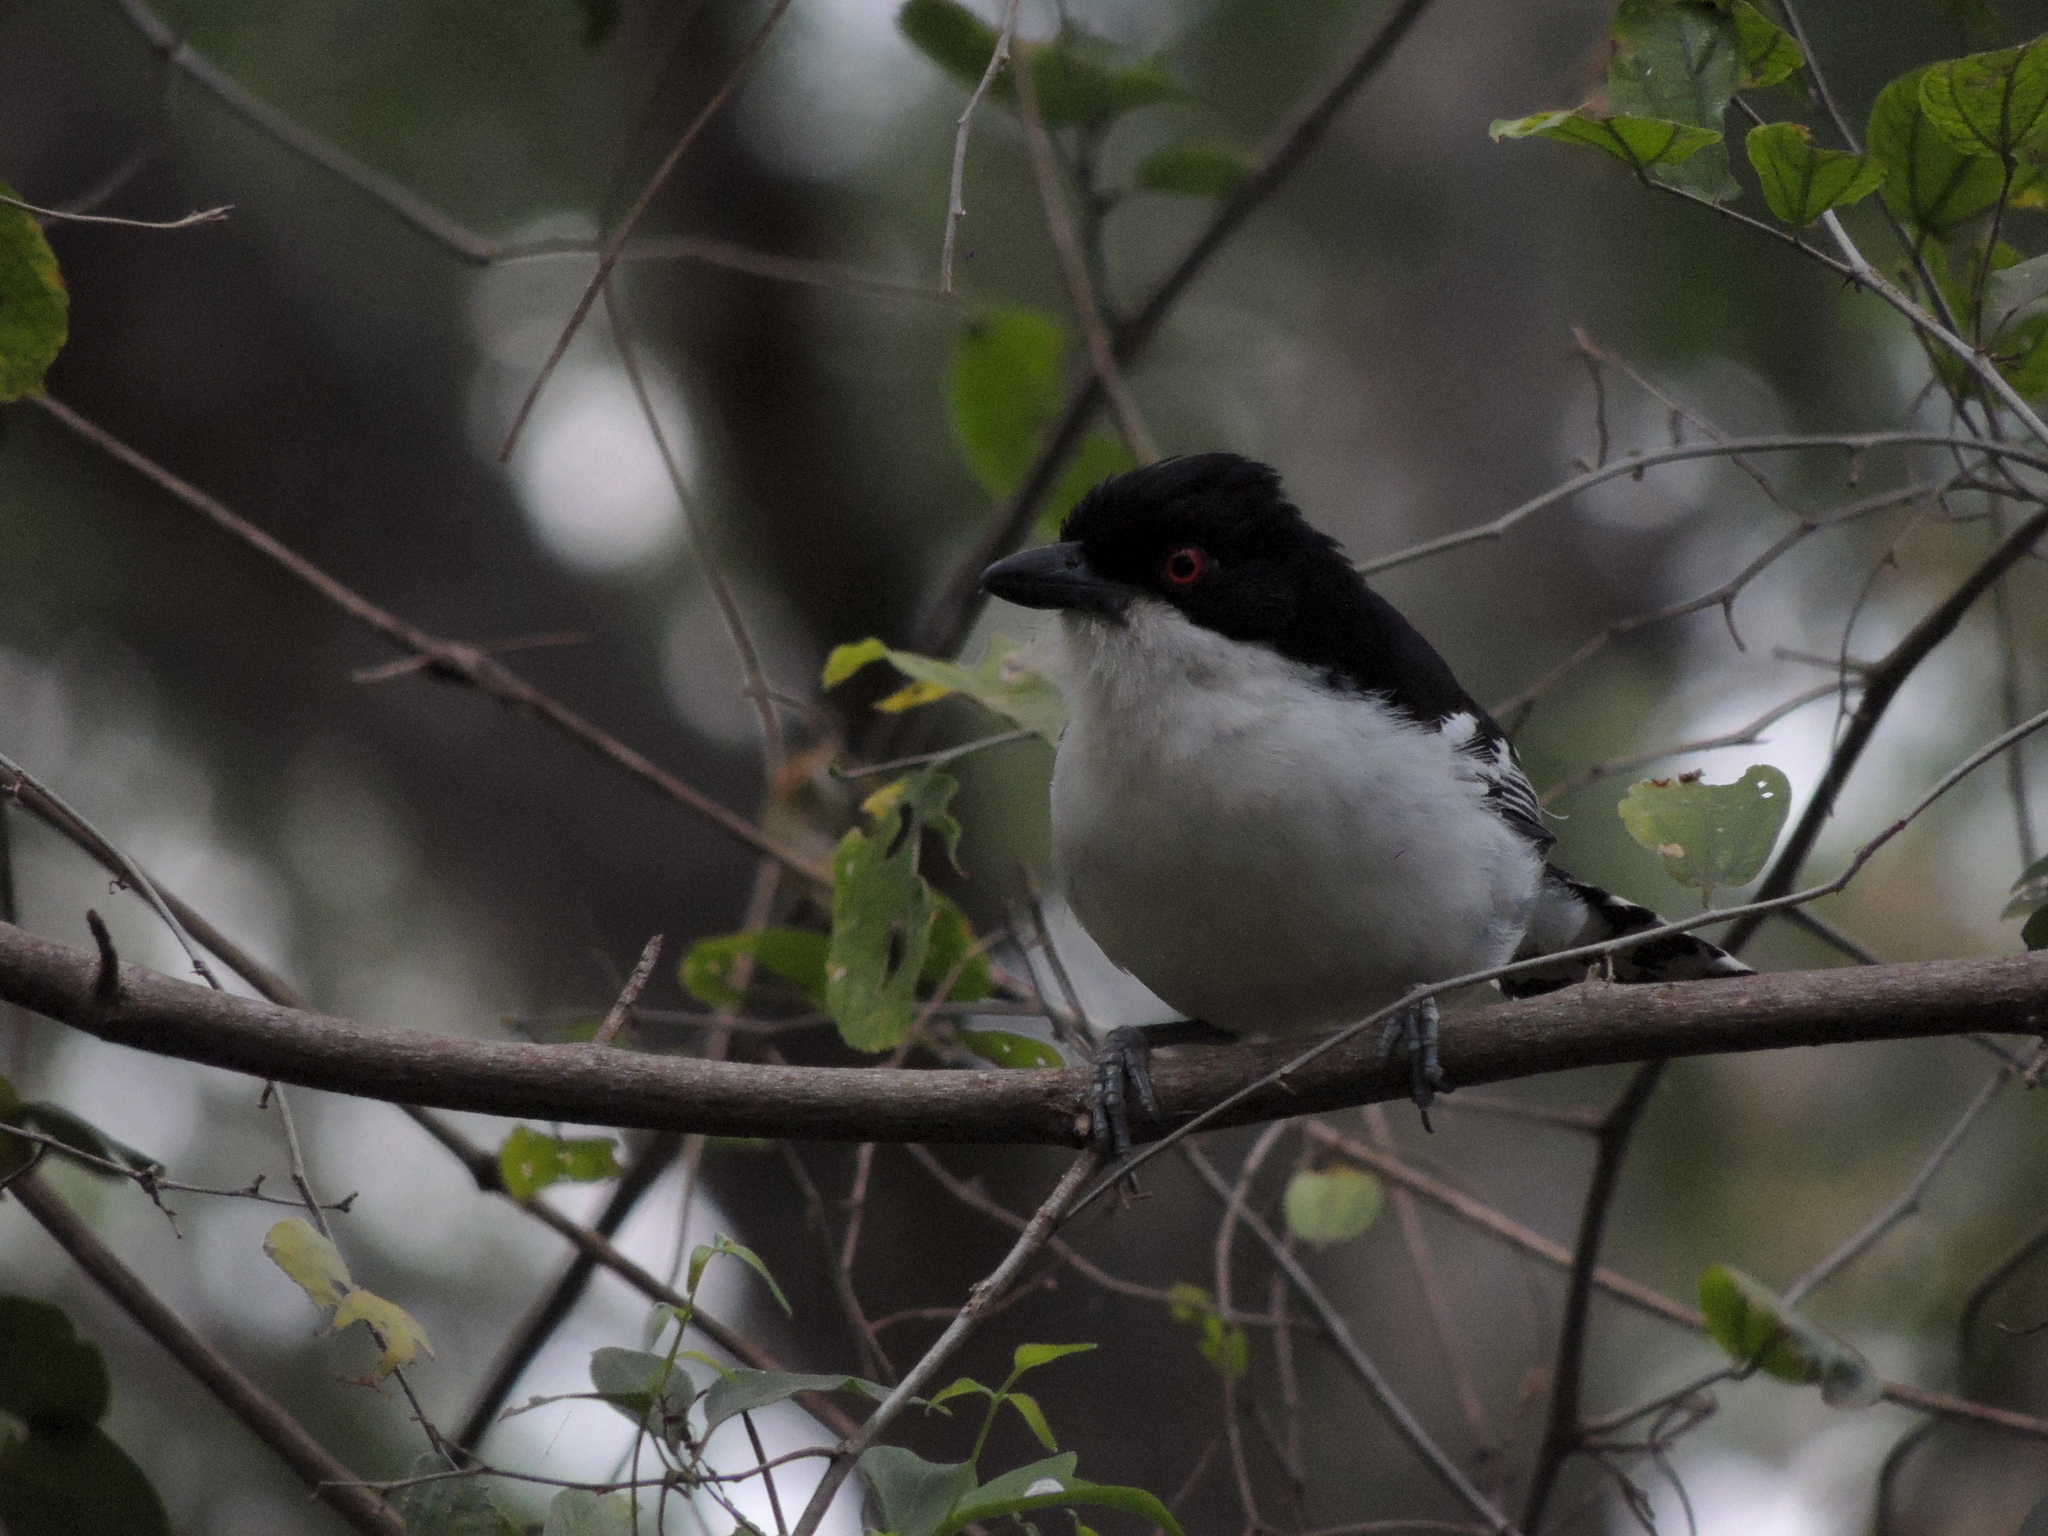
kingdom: Animalia
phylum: Chordata
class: Aves
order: Passeriformes
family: Thamnophilidae
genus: Taraba
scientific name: Taraba major
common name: Great antshrike
